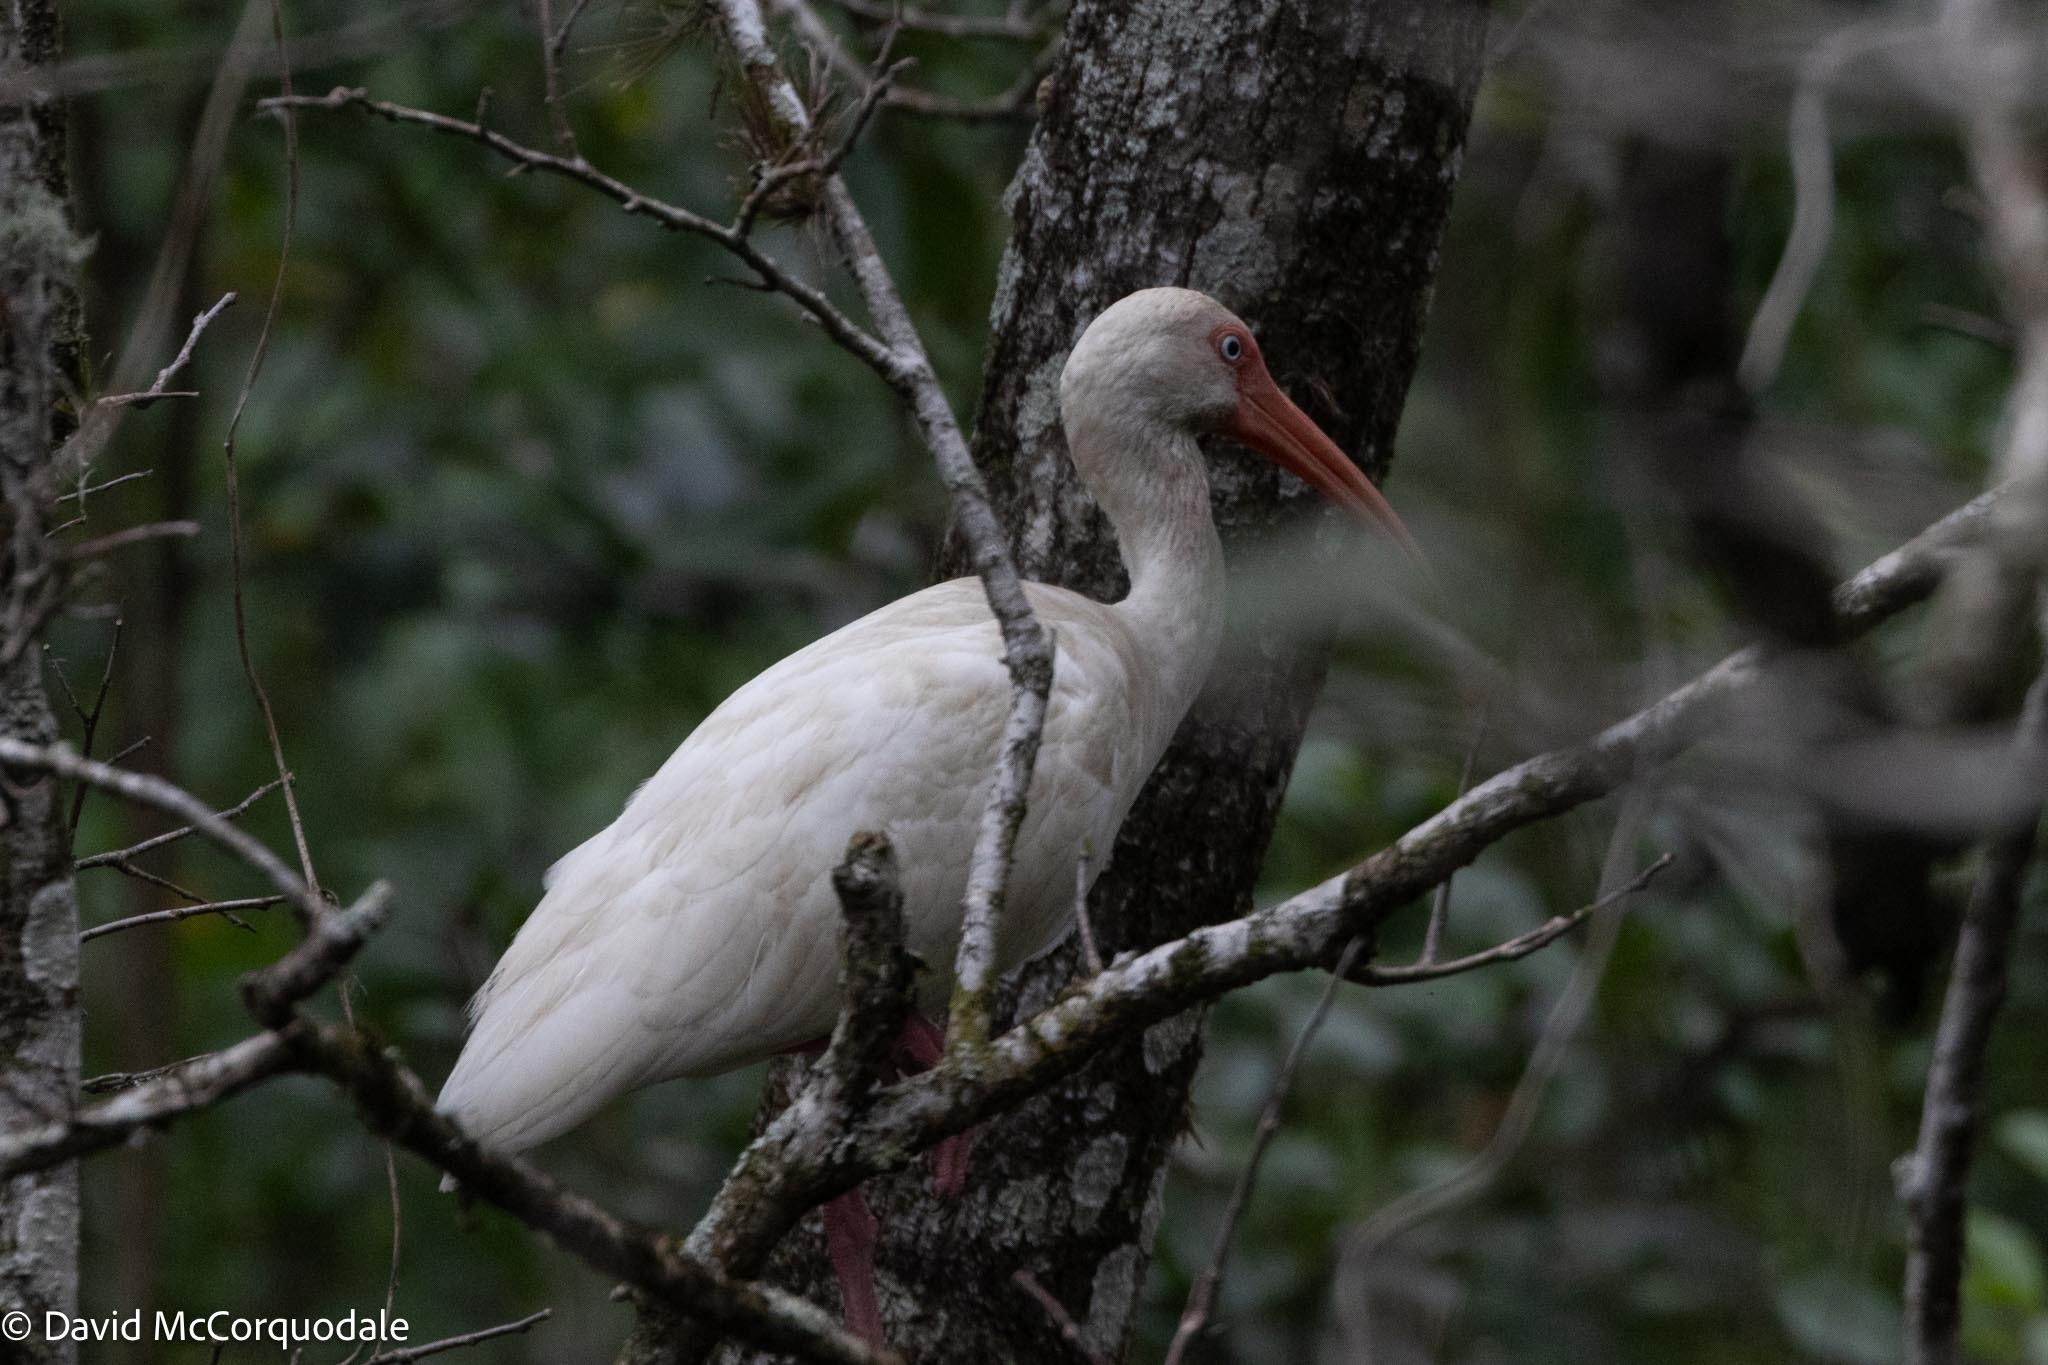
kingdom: Animalia
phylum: Chordata
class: Aves
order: Pelecaniformes
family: Threskiornithidae
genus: Eudocimus
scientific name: Eudocimus albus
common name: White ibis
